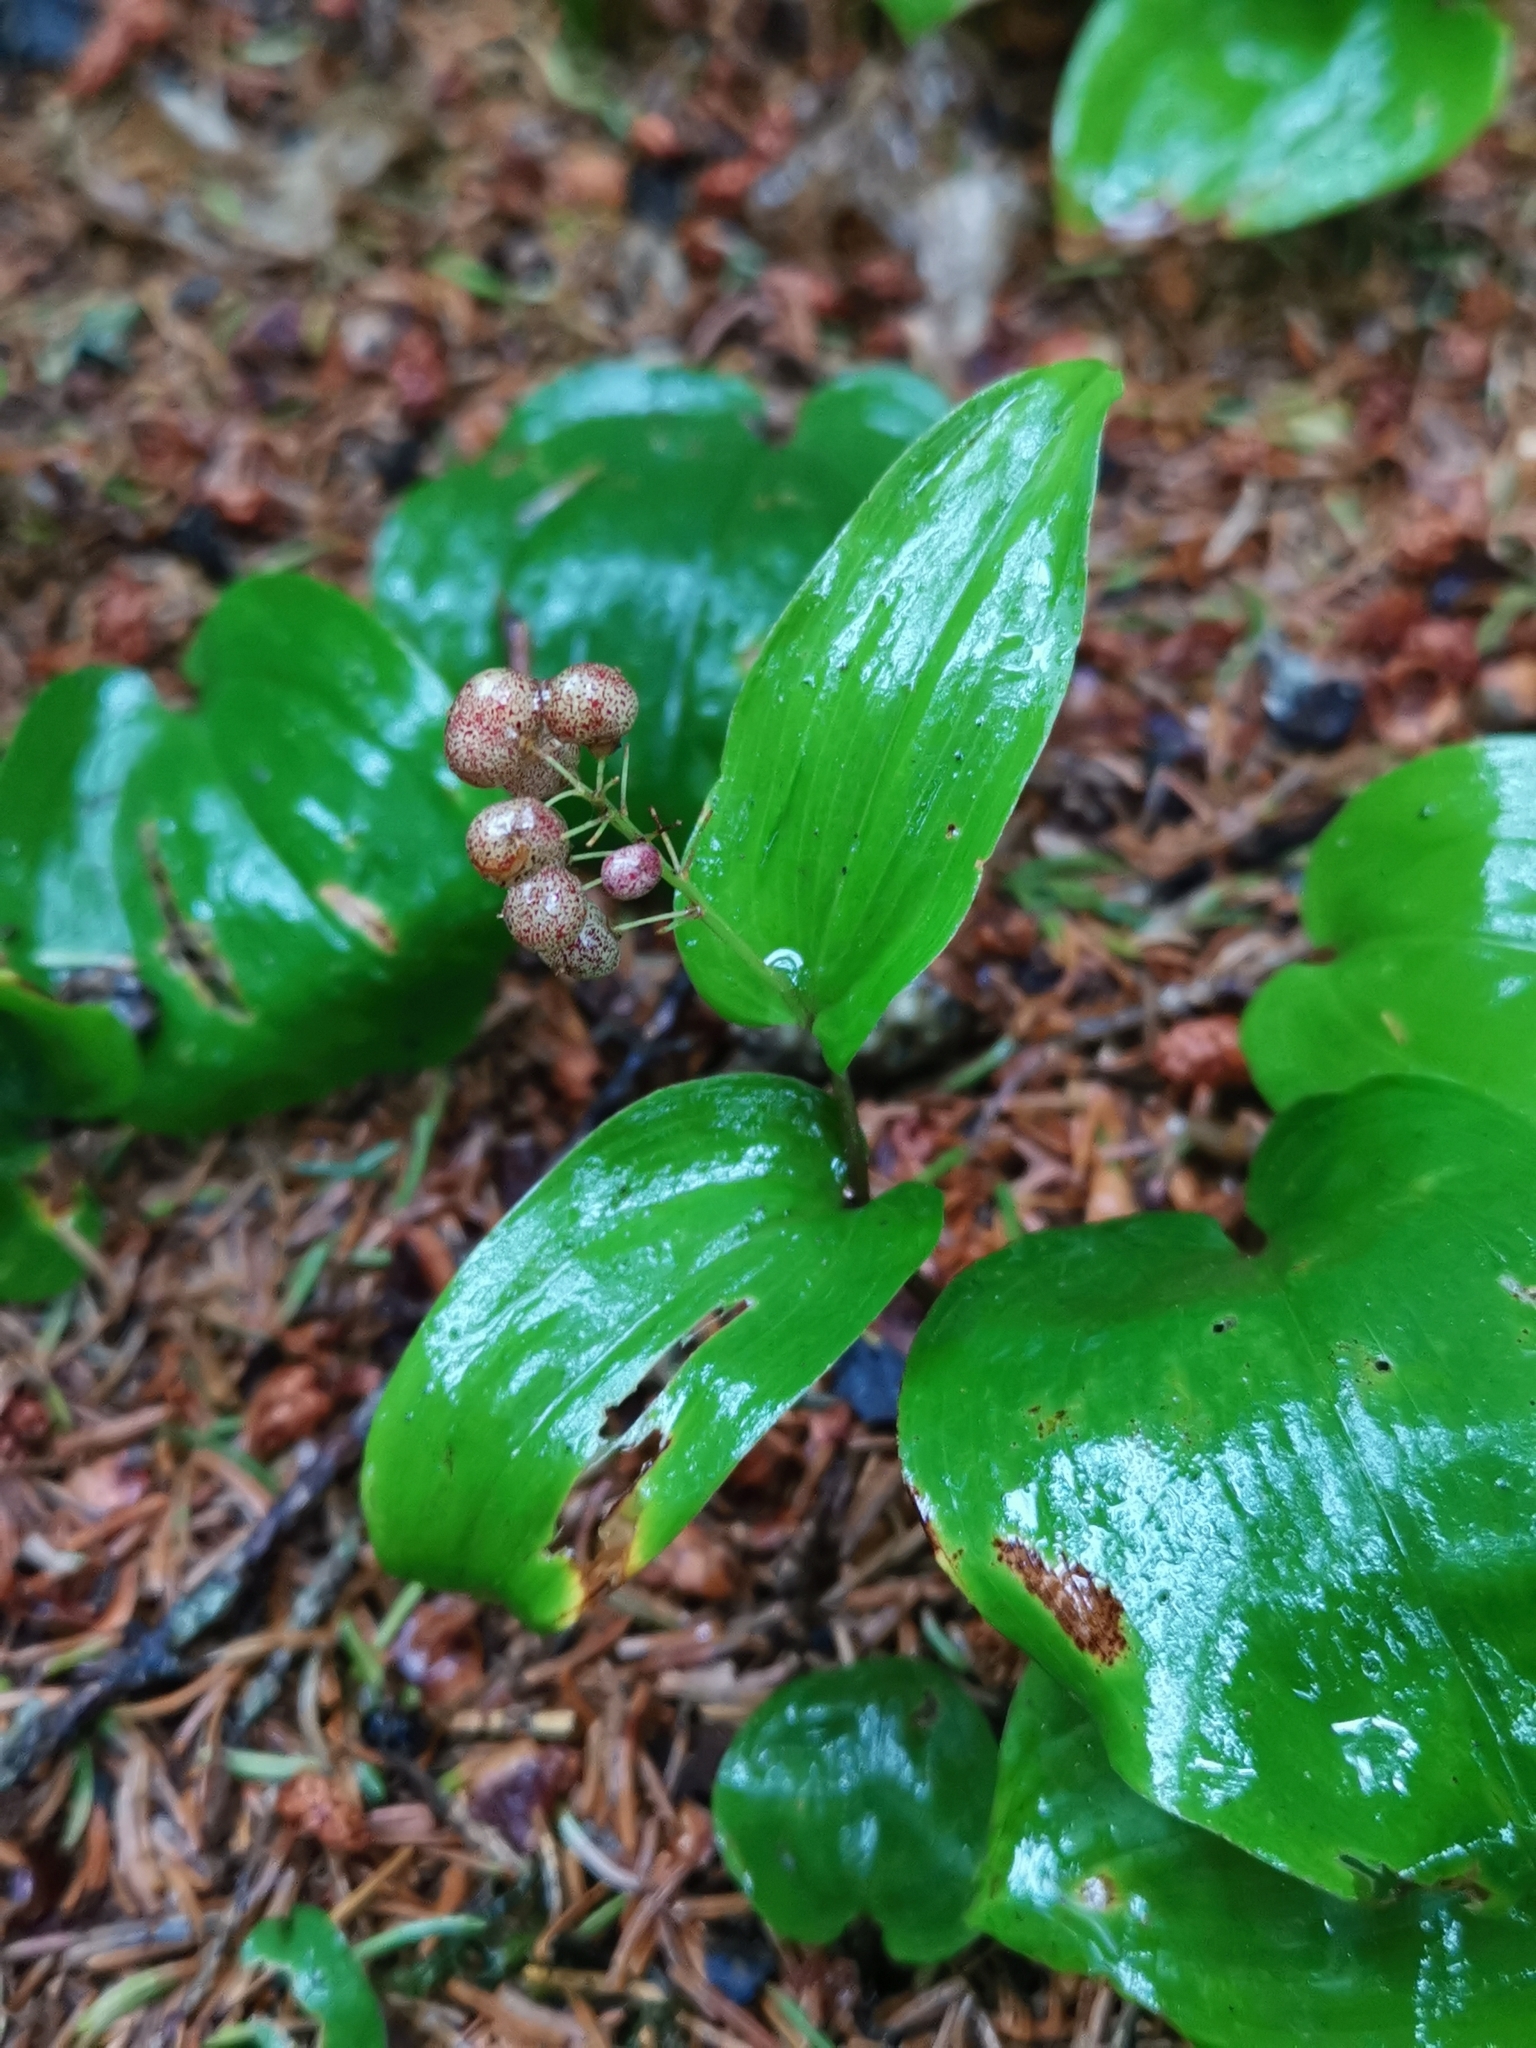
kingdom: Plantae
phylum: Tracheophyta
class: Liliopsida
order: Asparagales
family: Asparagaceae
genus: Maianthemum
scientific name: Maianthemum canadense
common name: False lily-of-the-valley
